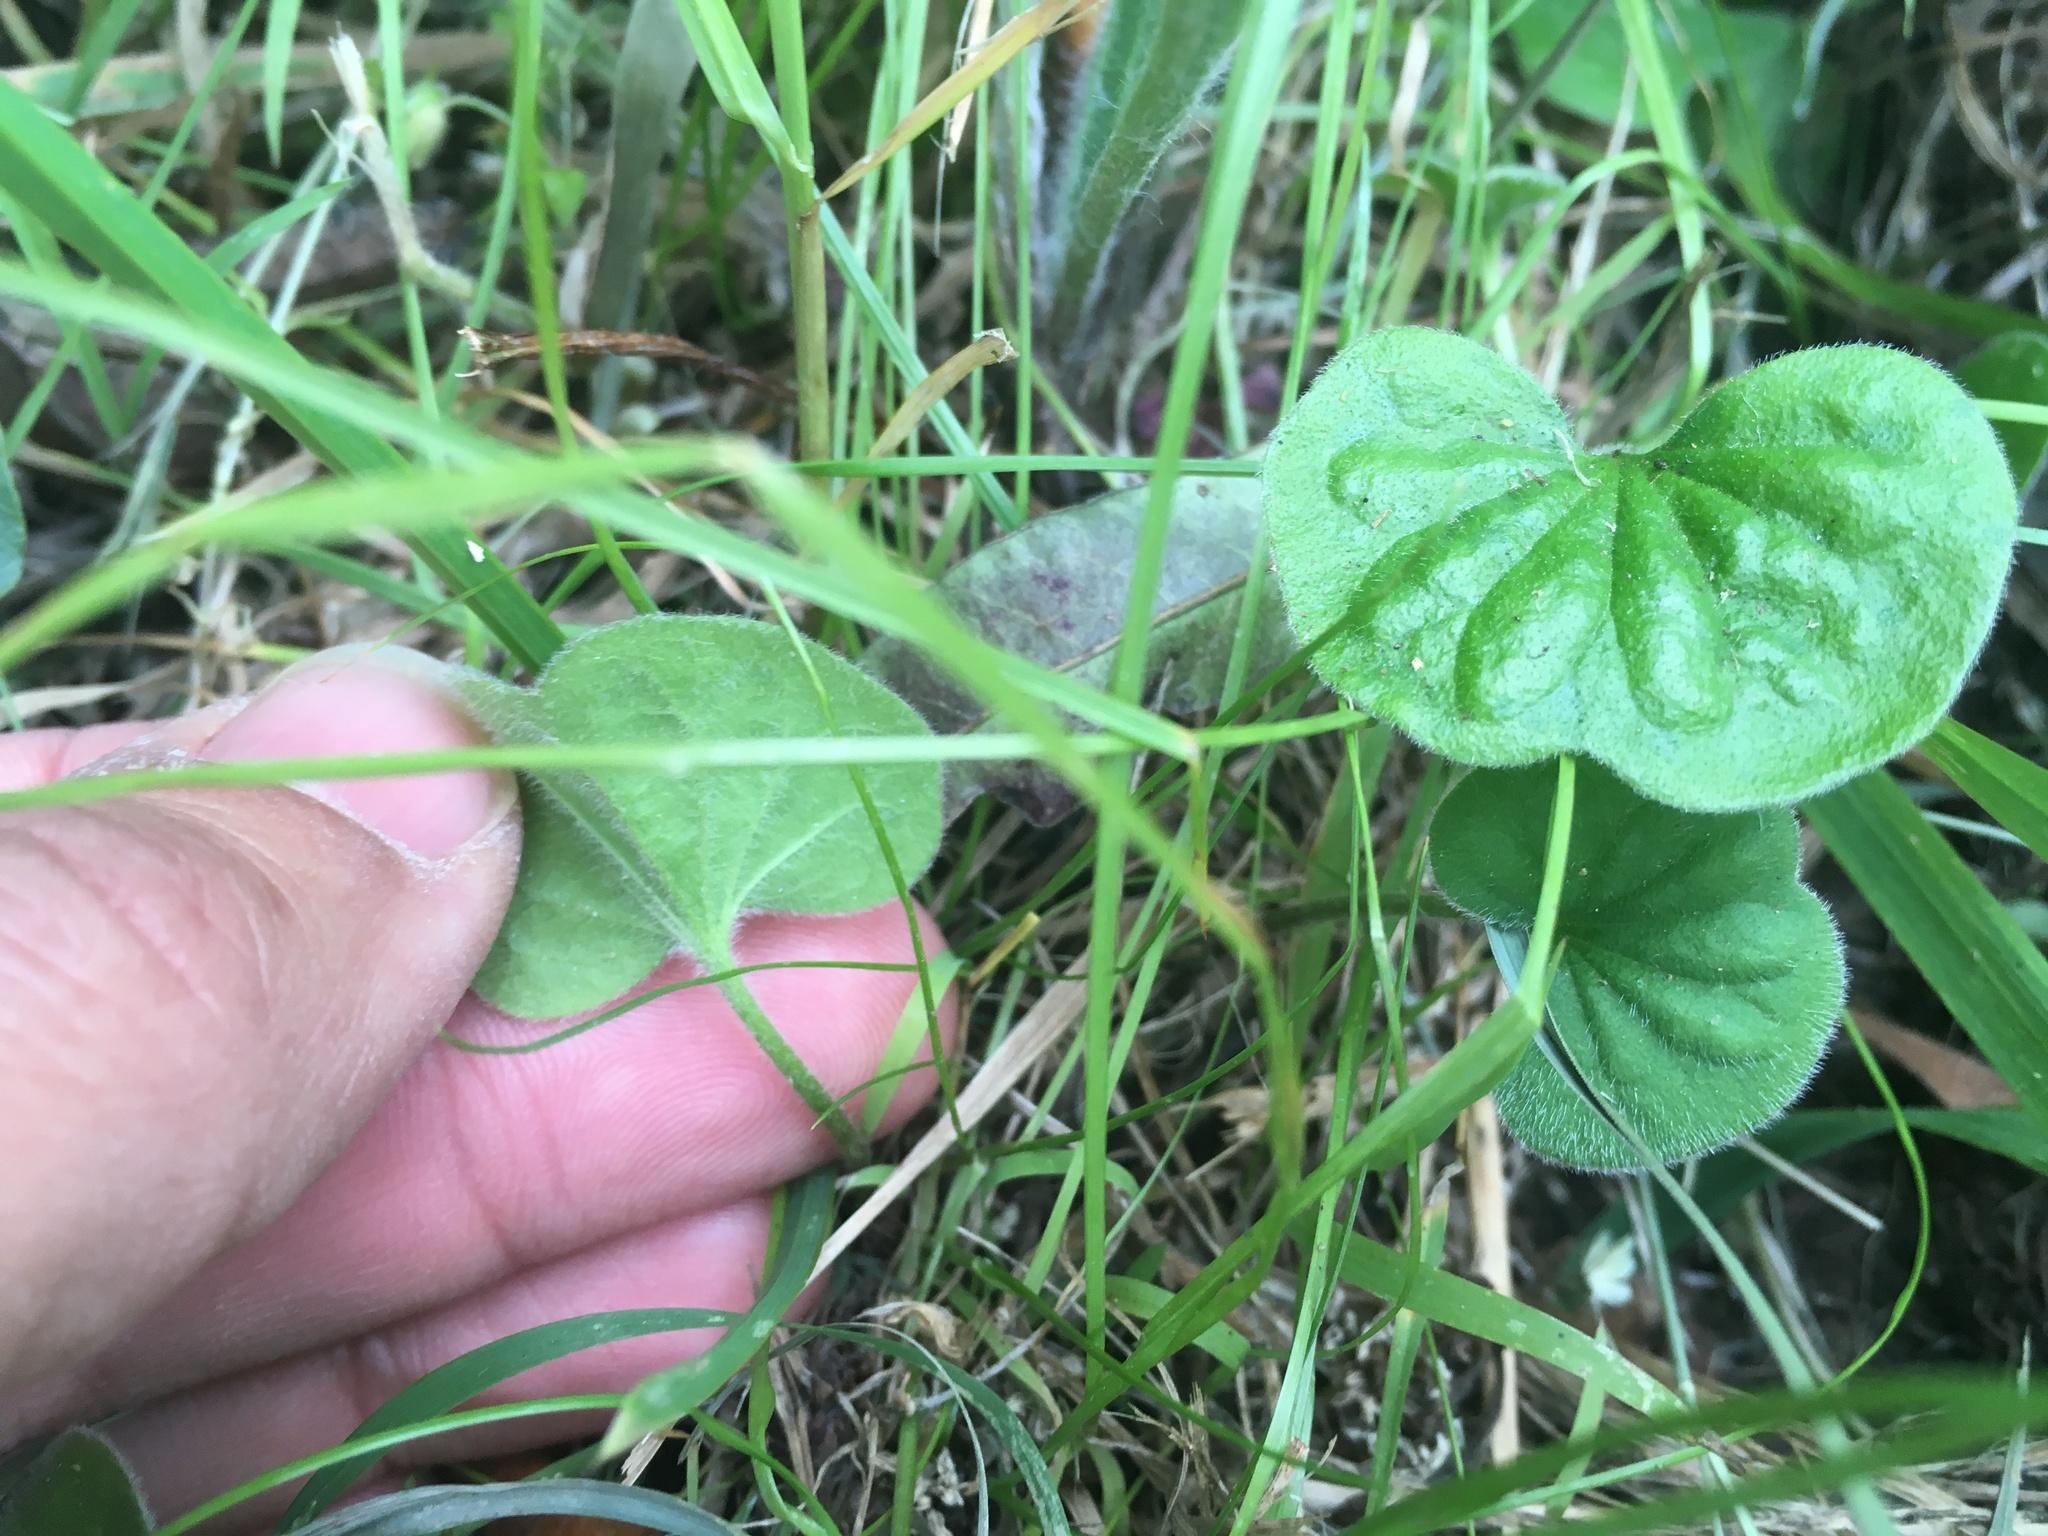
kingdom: Plantae
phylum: Tracheophyta
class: Magnoliopsida
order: Solanales
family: Convolvulaceae
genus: Dichondra
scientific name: Dichondra repens
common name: Kidneyweed
